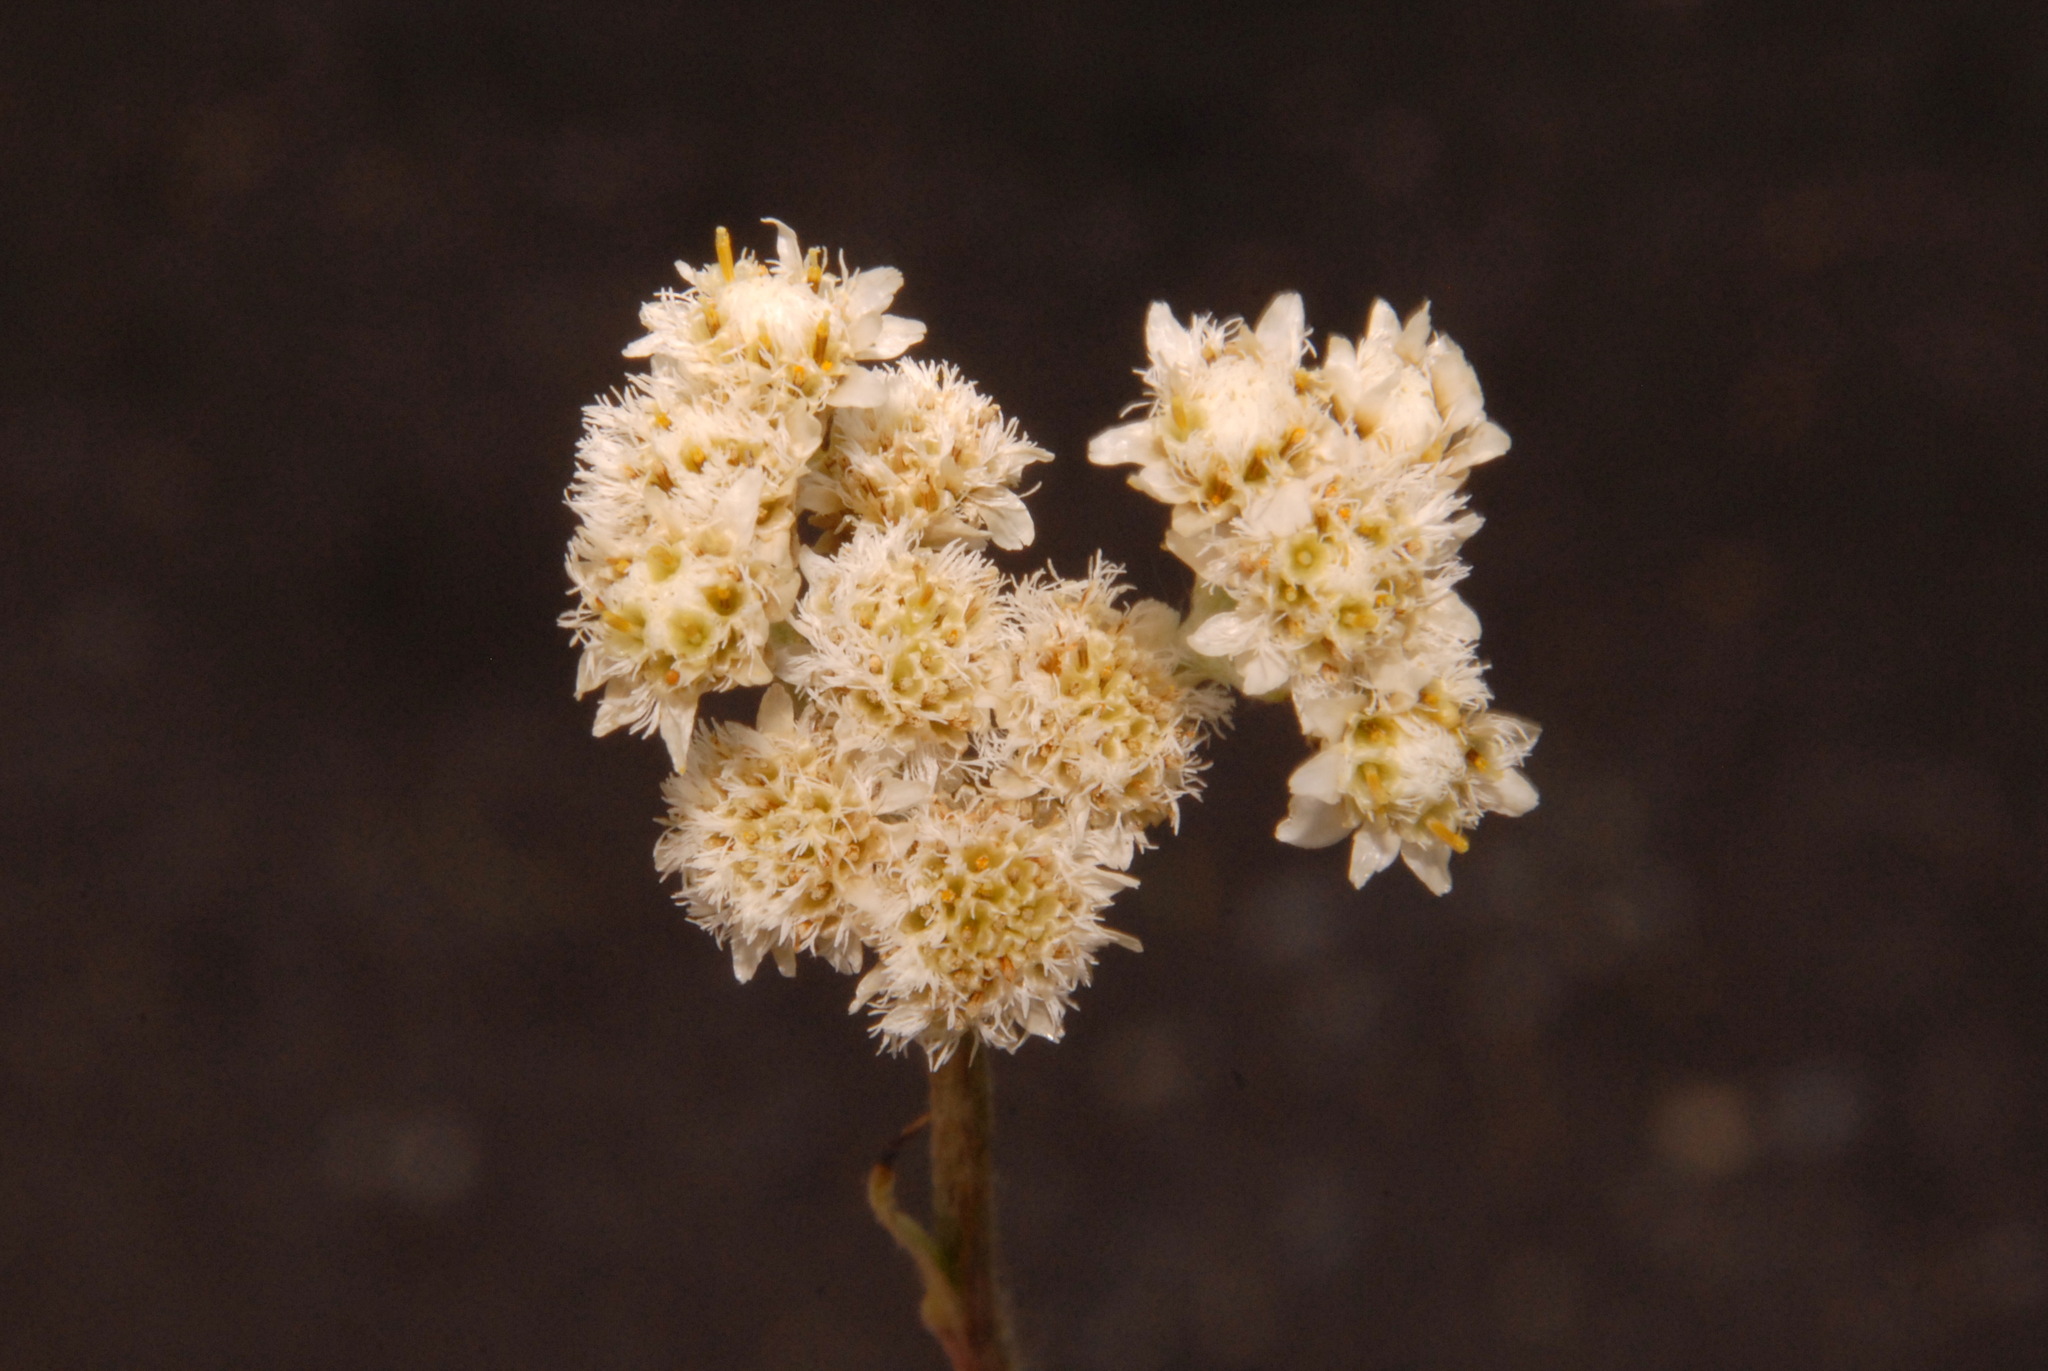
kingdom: Plantae
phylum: Tracheophyta
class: Magnoliopsida
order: Asterales
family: Asteraceae
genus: Antennaria
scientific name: Antennaria pulcherrima
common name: Handsome pussytoes
